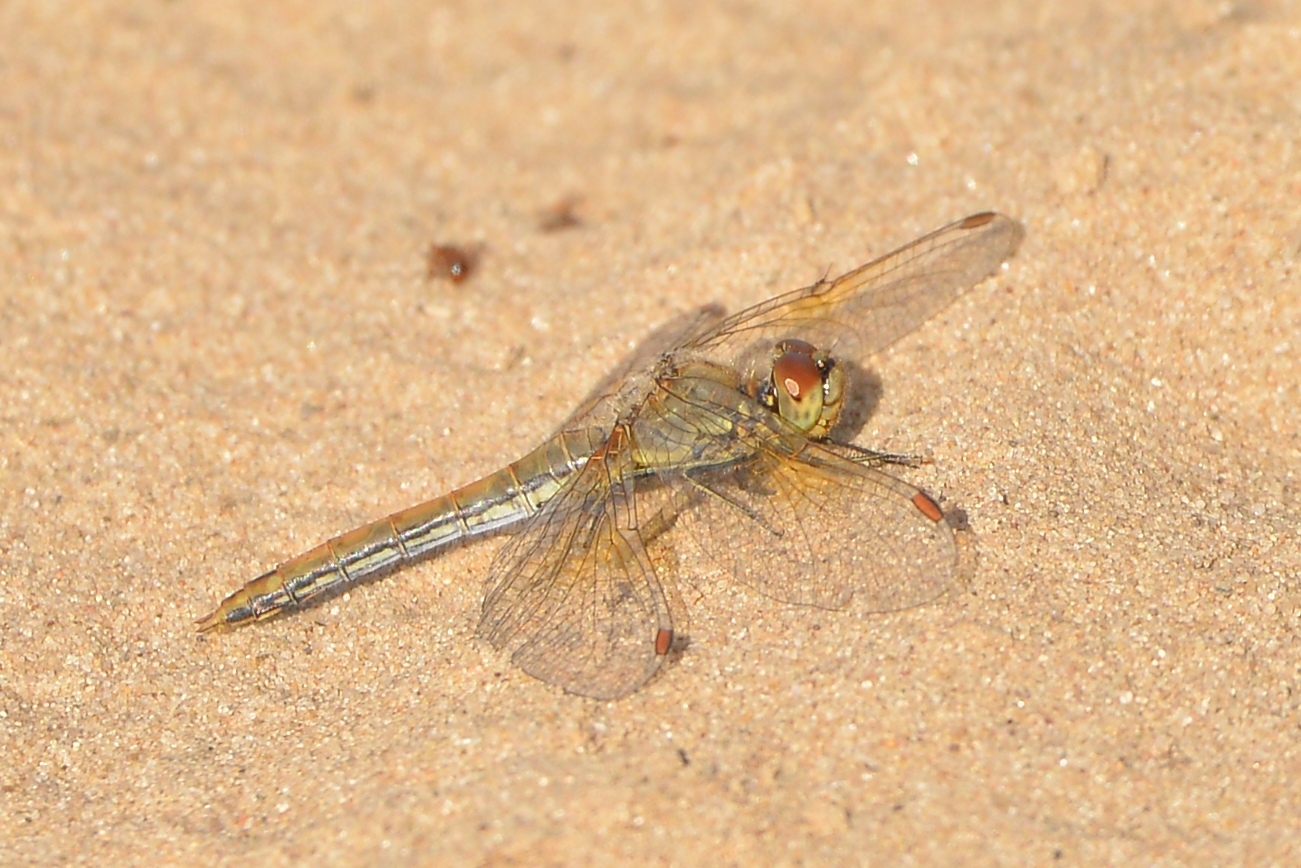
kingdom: Animalia
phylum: Arthropoda
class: Insecta
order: Odonata
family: Libellulidae
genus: Sympetrum
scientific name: Sympetrum flaveolum
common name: Yellow-winged darter
